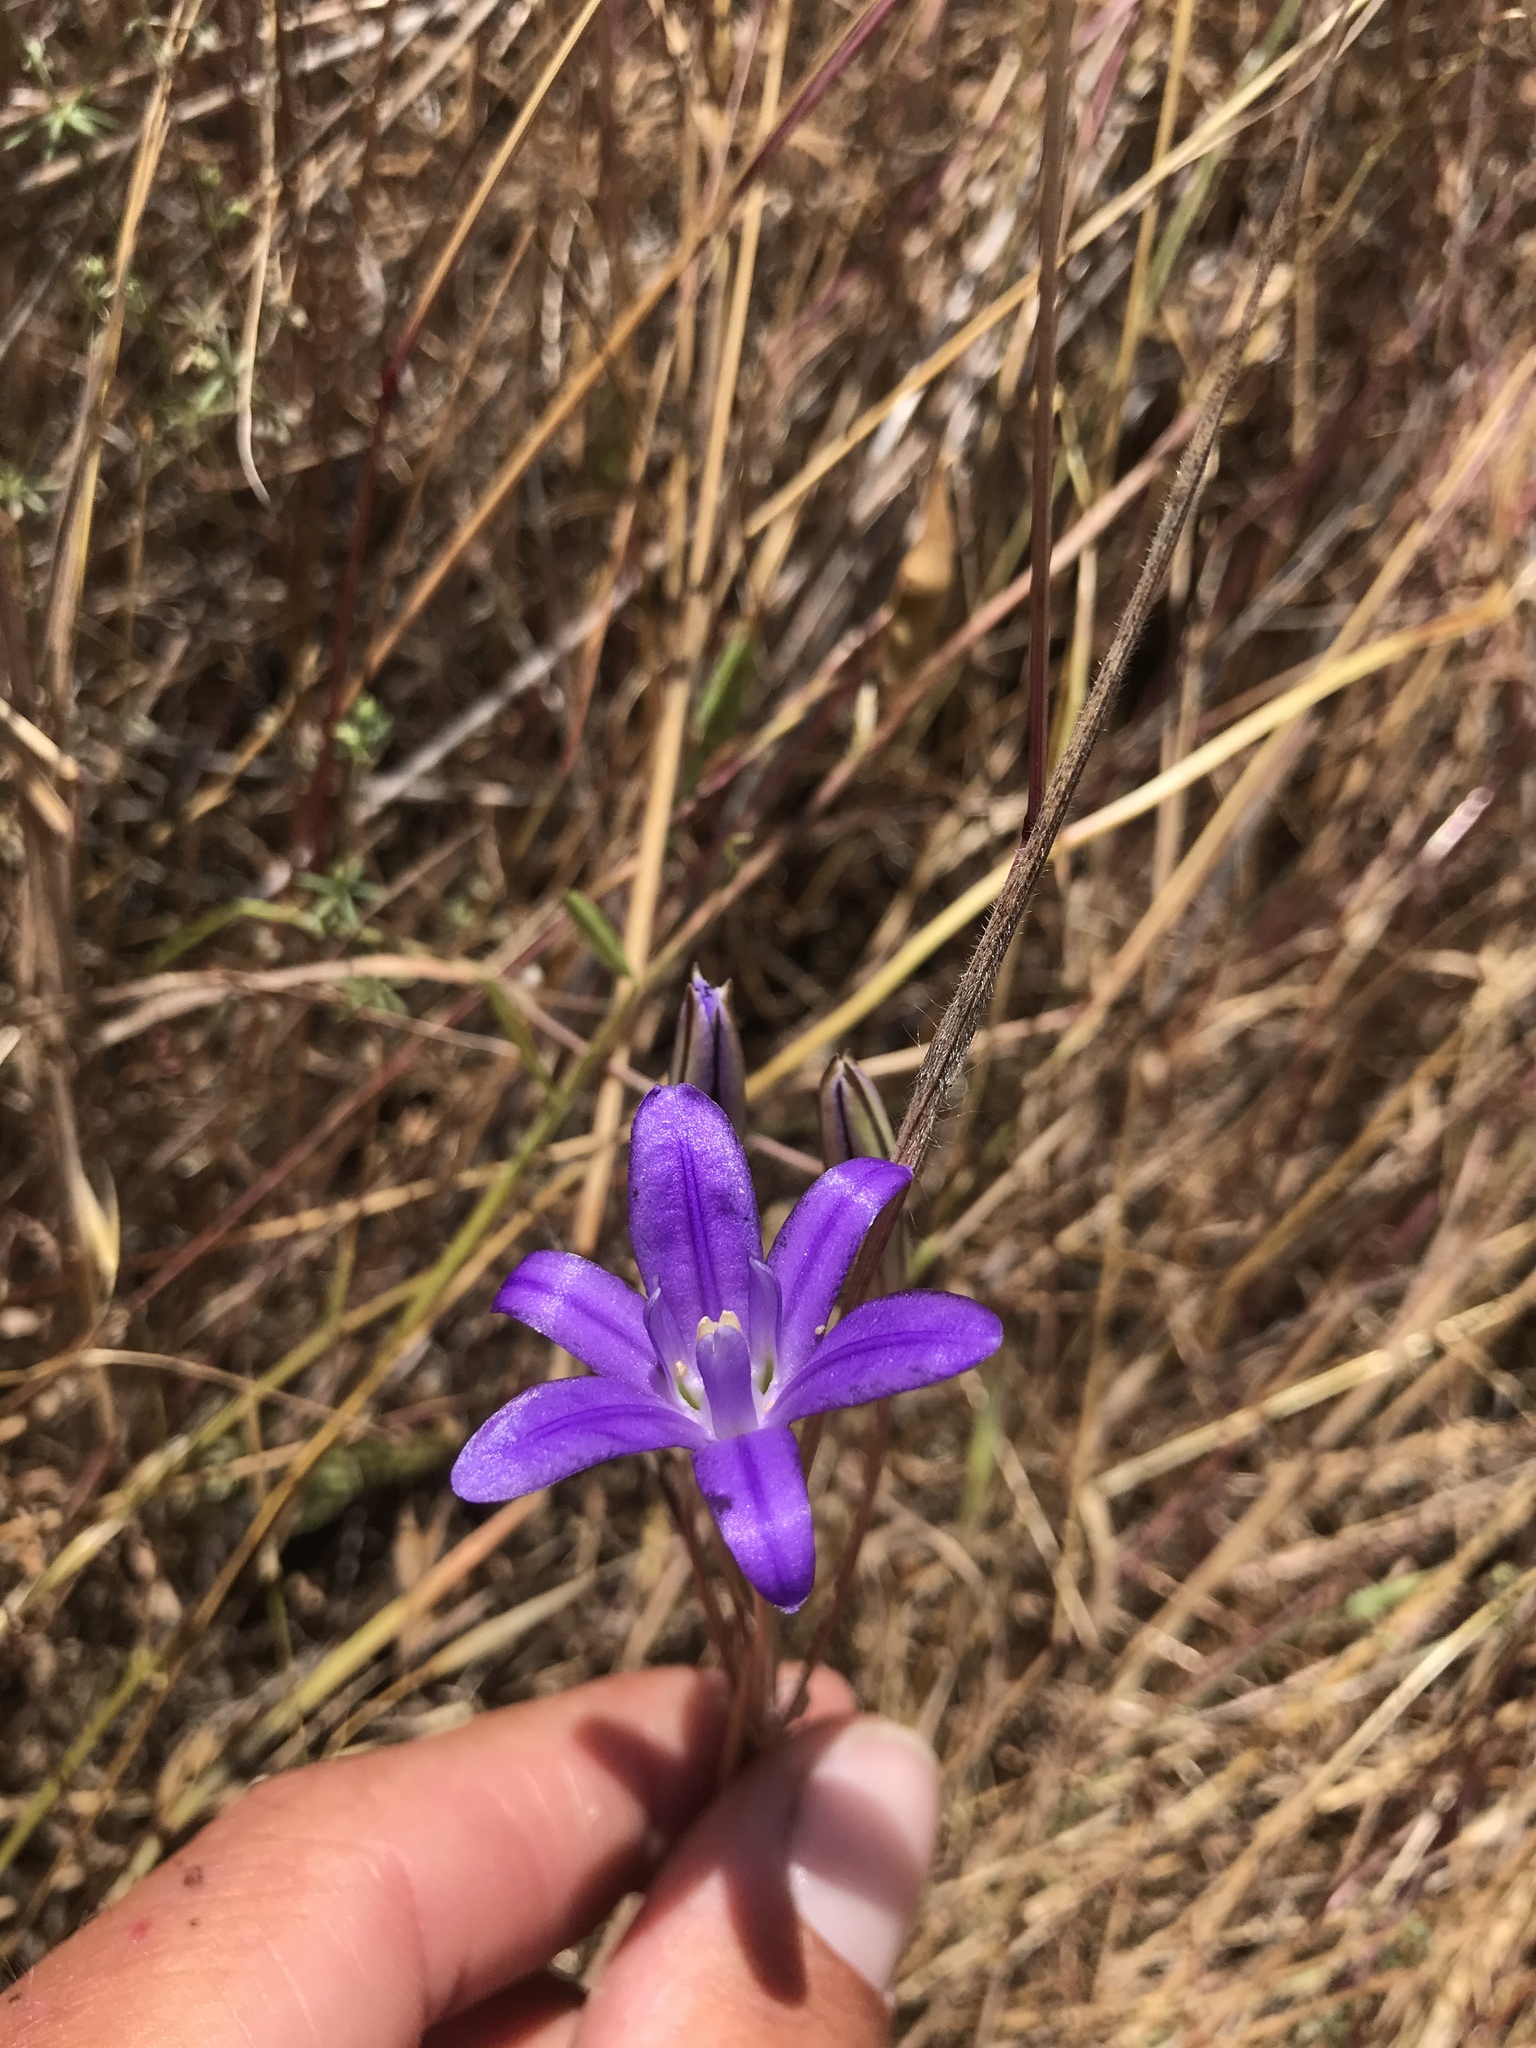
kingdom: Plantae
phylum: Tracheophyta
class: Liliopsida
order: Asparagales
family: Asparagaceae
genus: Brodiaea
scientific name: Brodiaea terrestris
